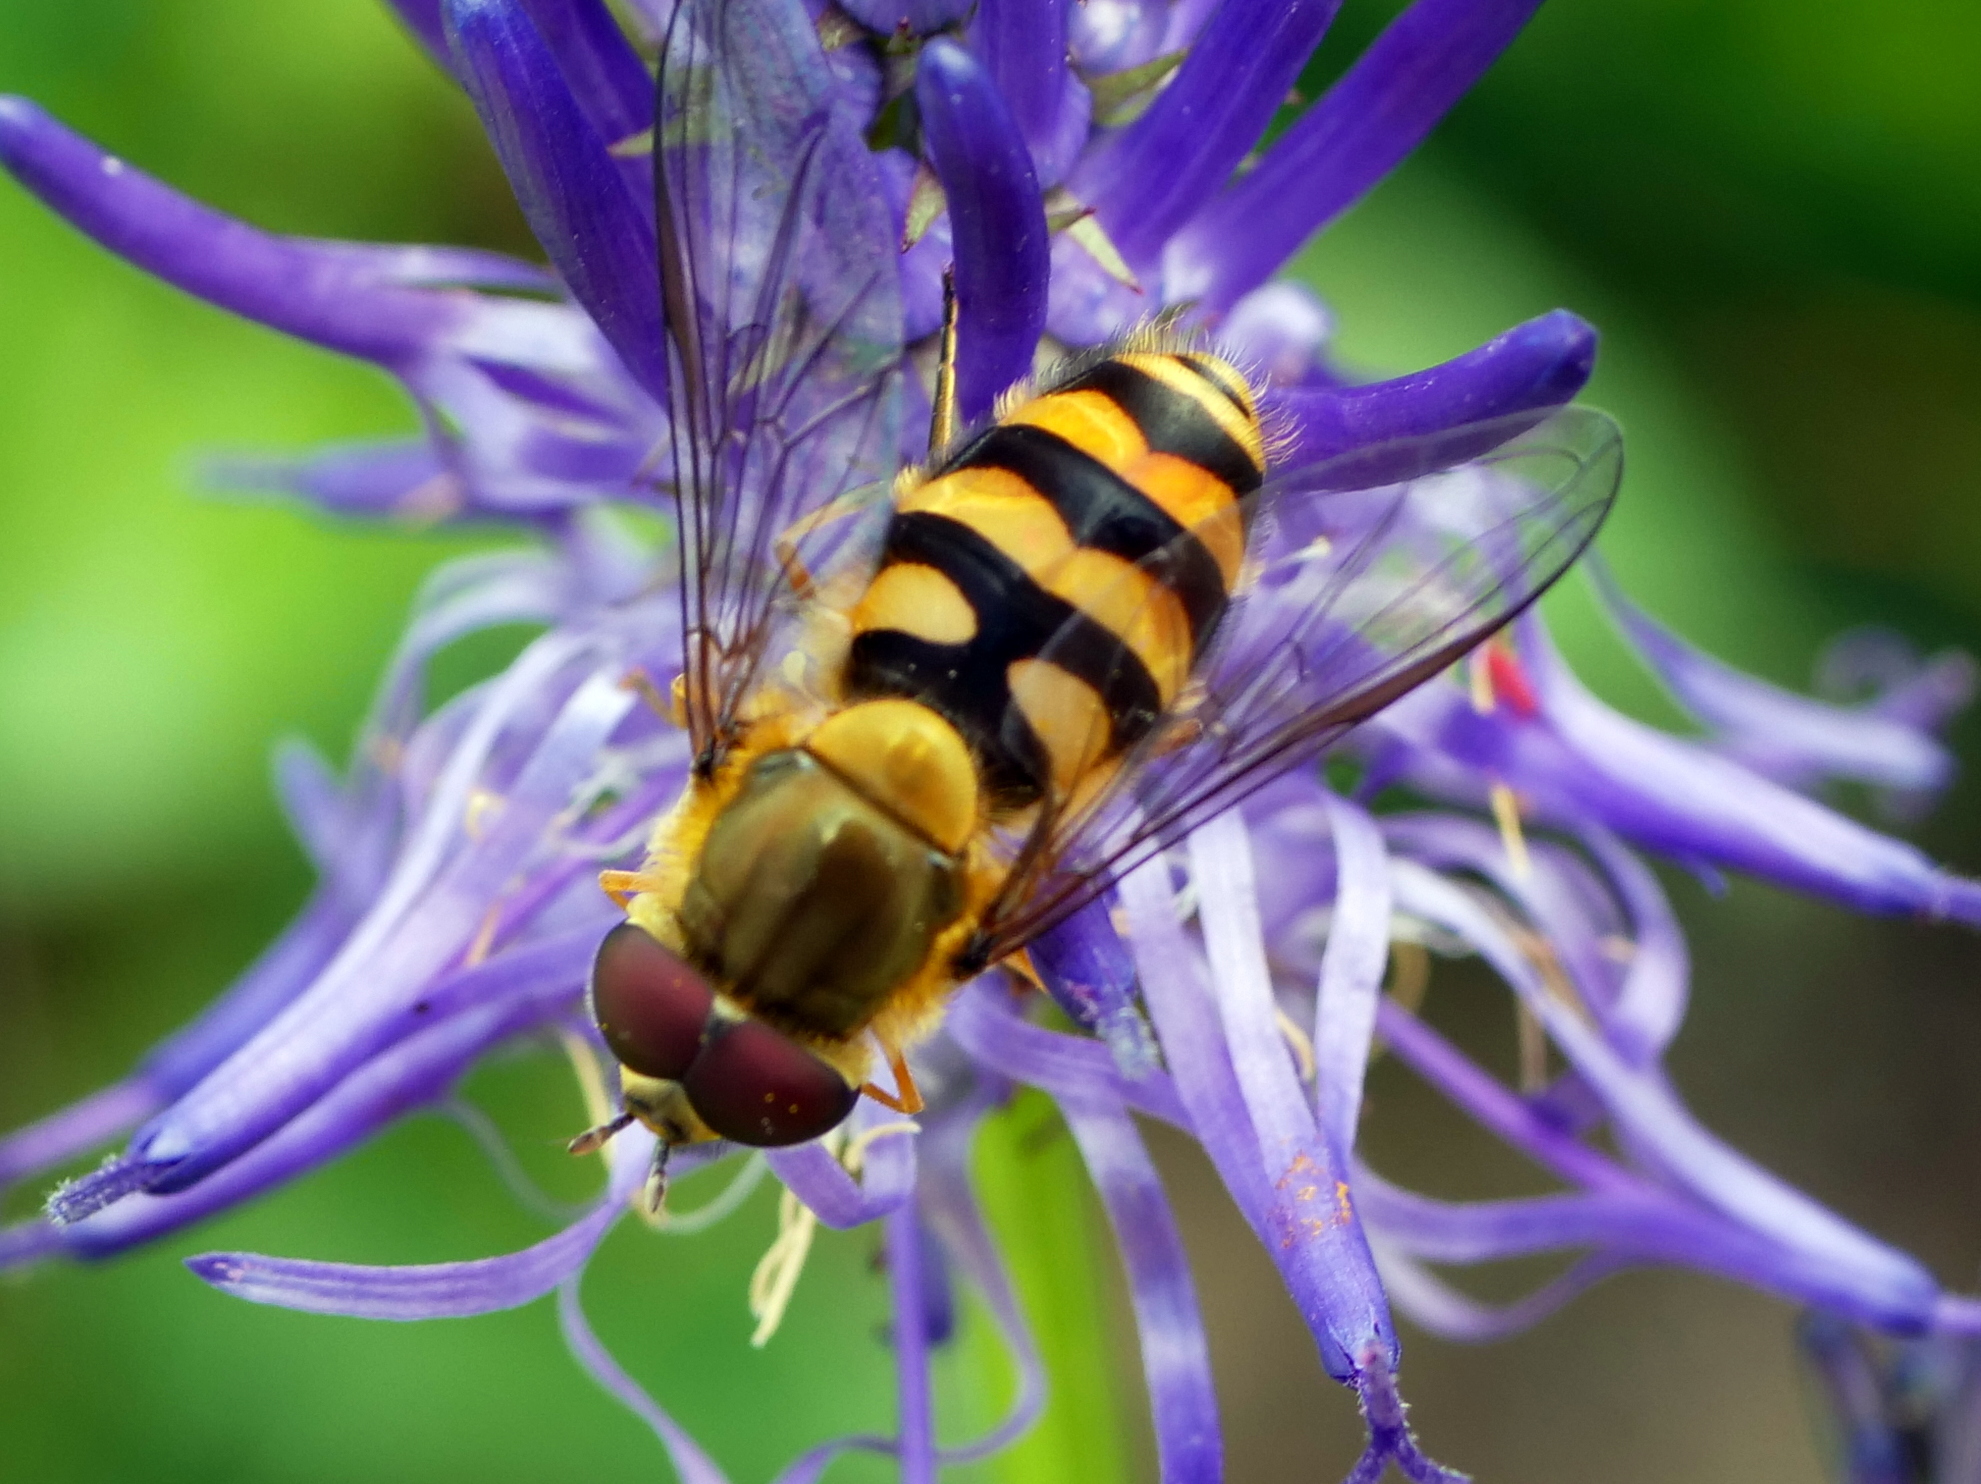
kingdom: Animalia
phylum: Arthropoda
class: Insecta
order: Diptera
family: Syrphidae
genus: Syrphus
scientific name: Syrphus
